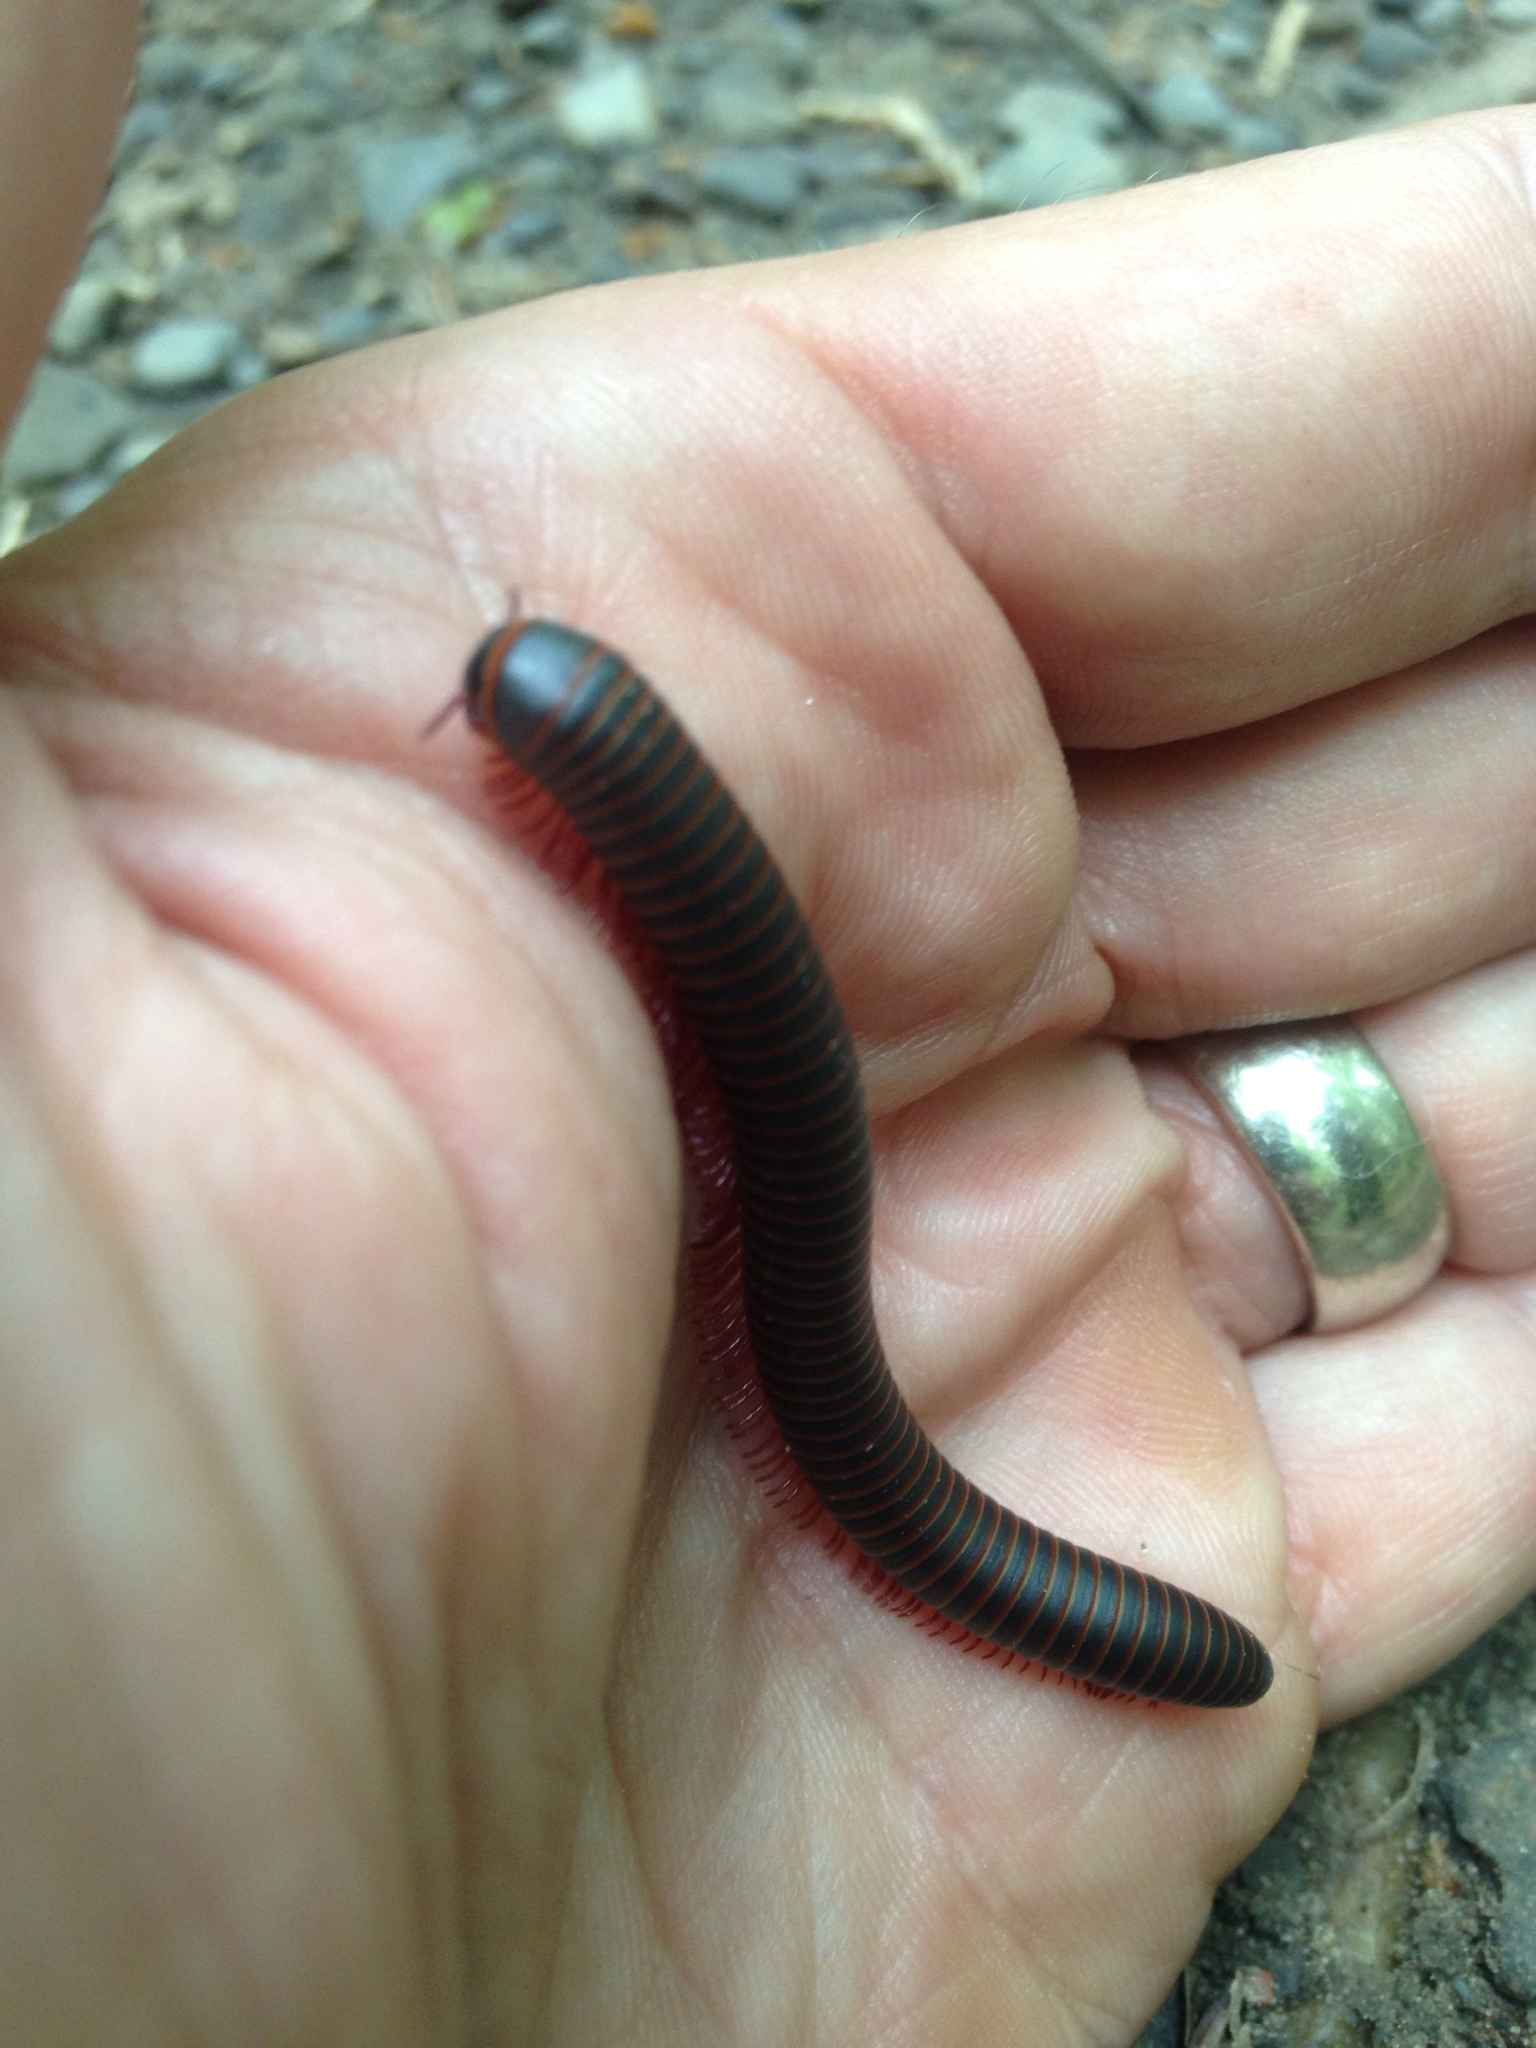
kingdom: Animalia
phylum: Arthropoda
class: Diplopoda
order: Spirobolida
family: Spirobolidae
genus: Narceus
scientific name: Narceus
